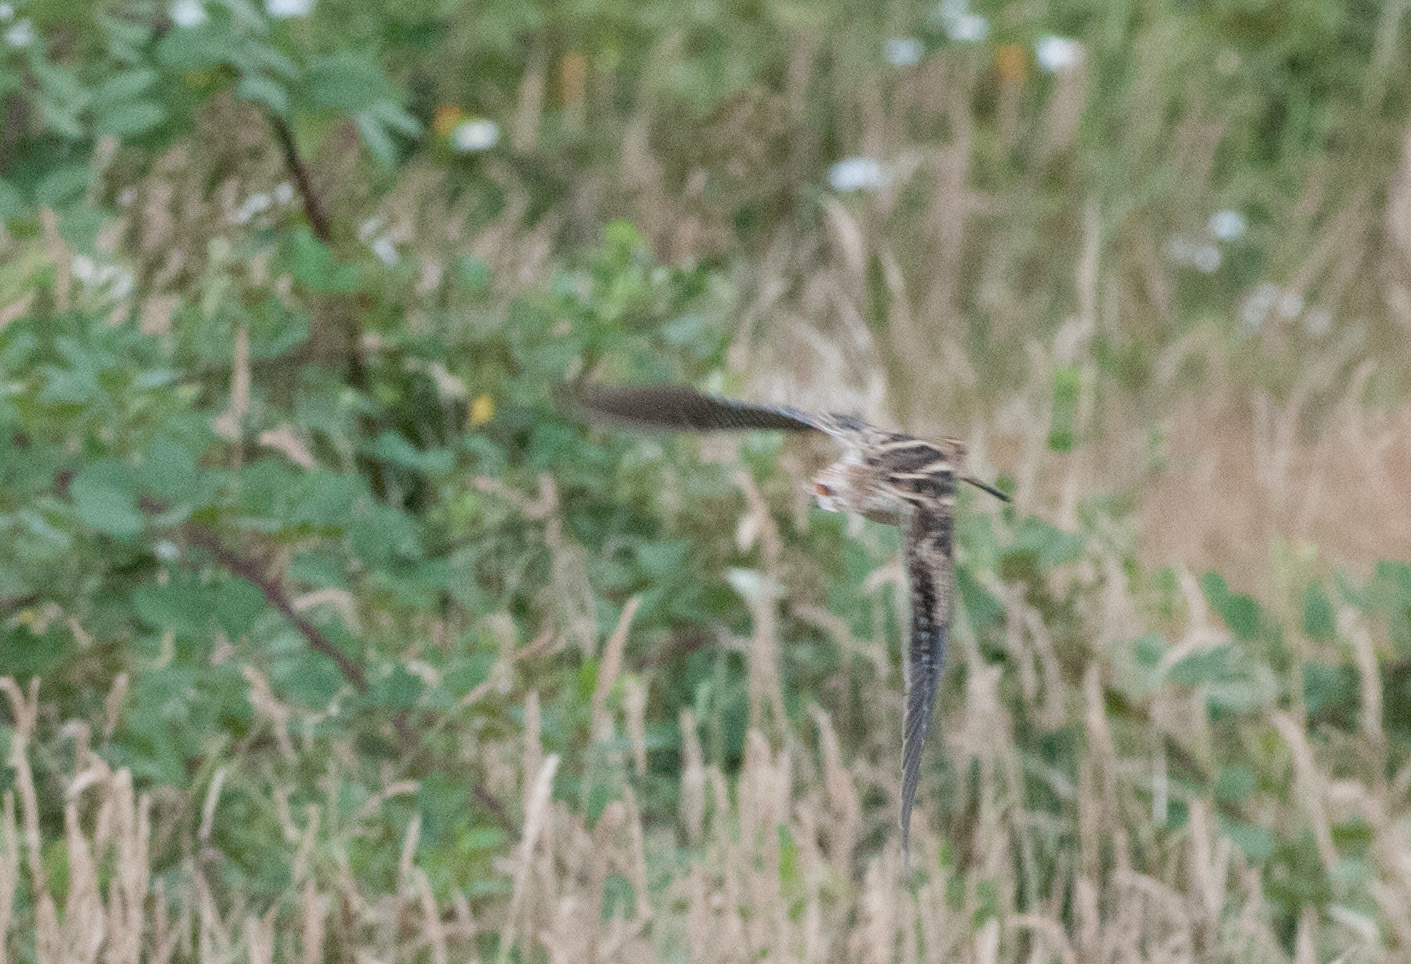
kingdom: Animalia
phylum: Chordata
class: Aves
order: Charadriiformes
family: Scolopacidae
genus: Gallinago
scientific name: Gallinago hardwickii
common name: Latham's snipe
